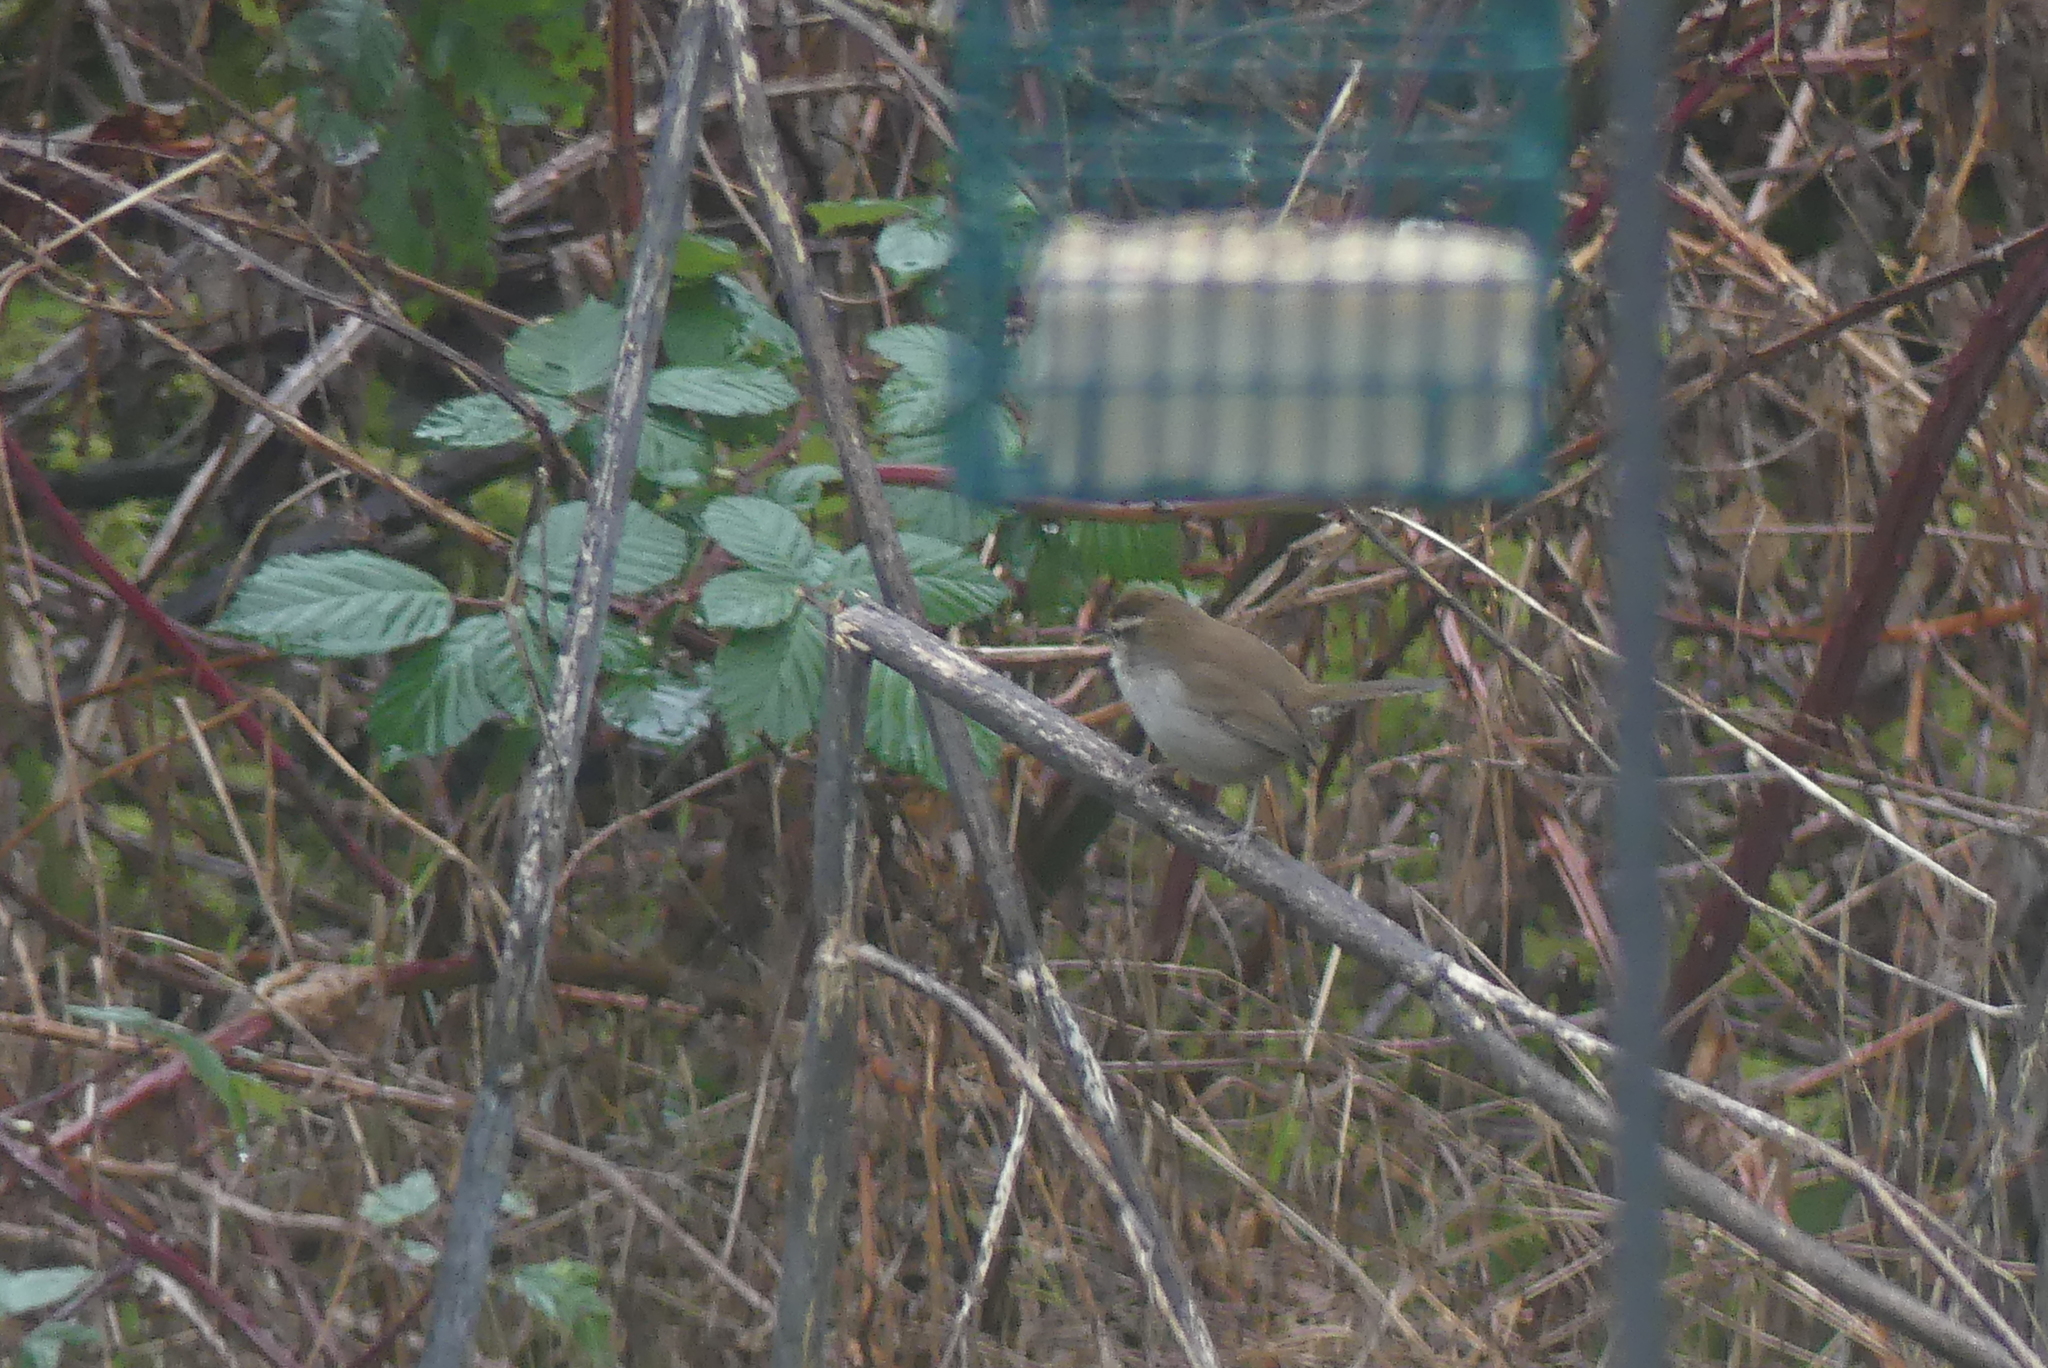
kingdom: Animalia
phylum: Chordata
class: Aves
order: Passeriformes
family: Troglodytidae
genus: Thryomanes
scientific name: Thryomanes bewickii
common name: Bewick's wren
